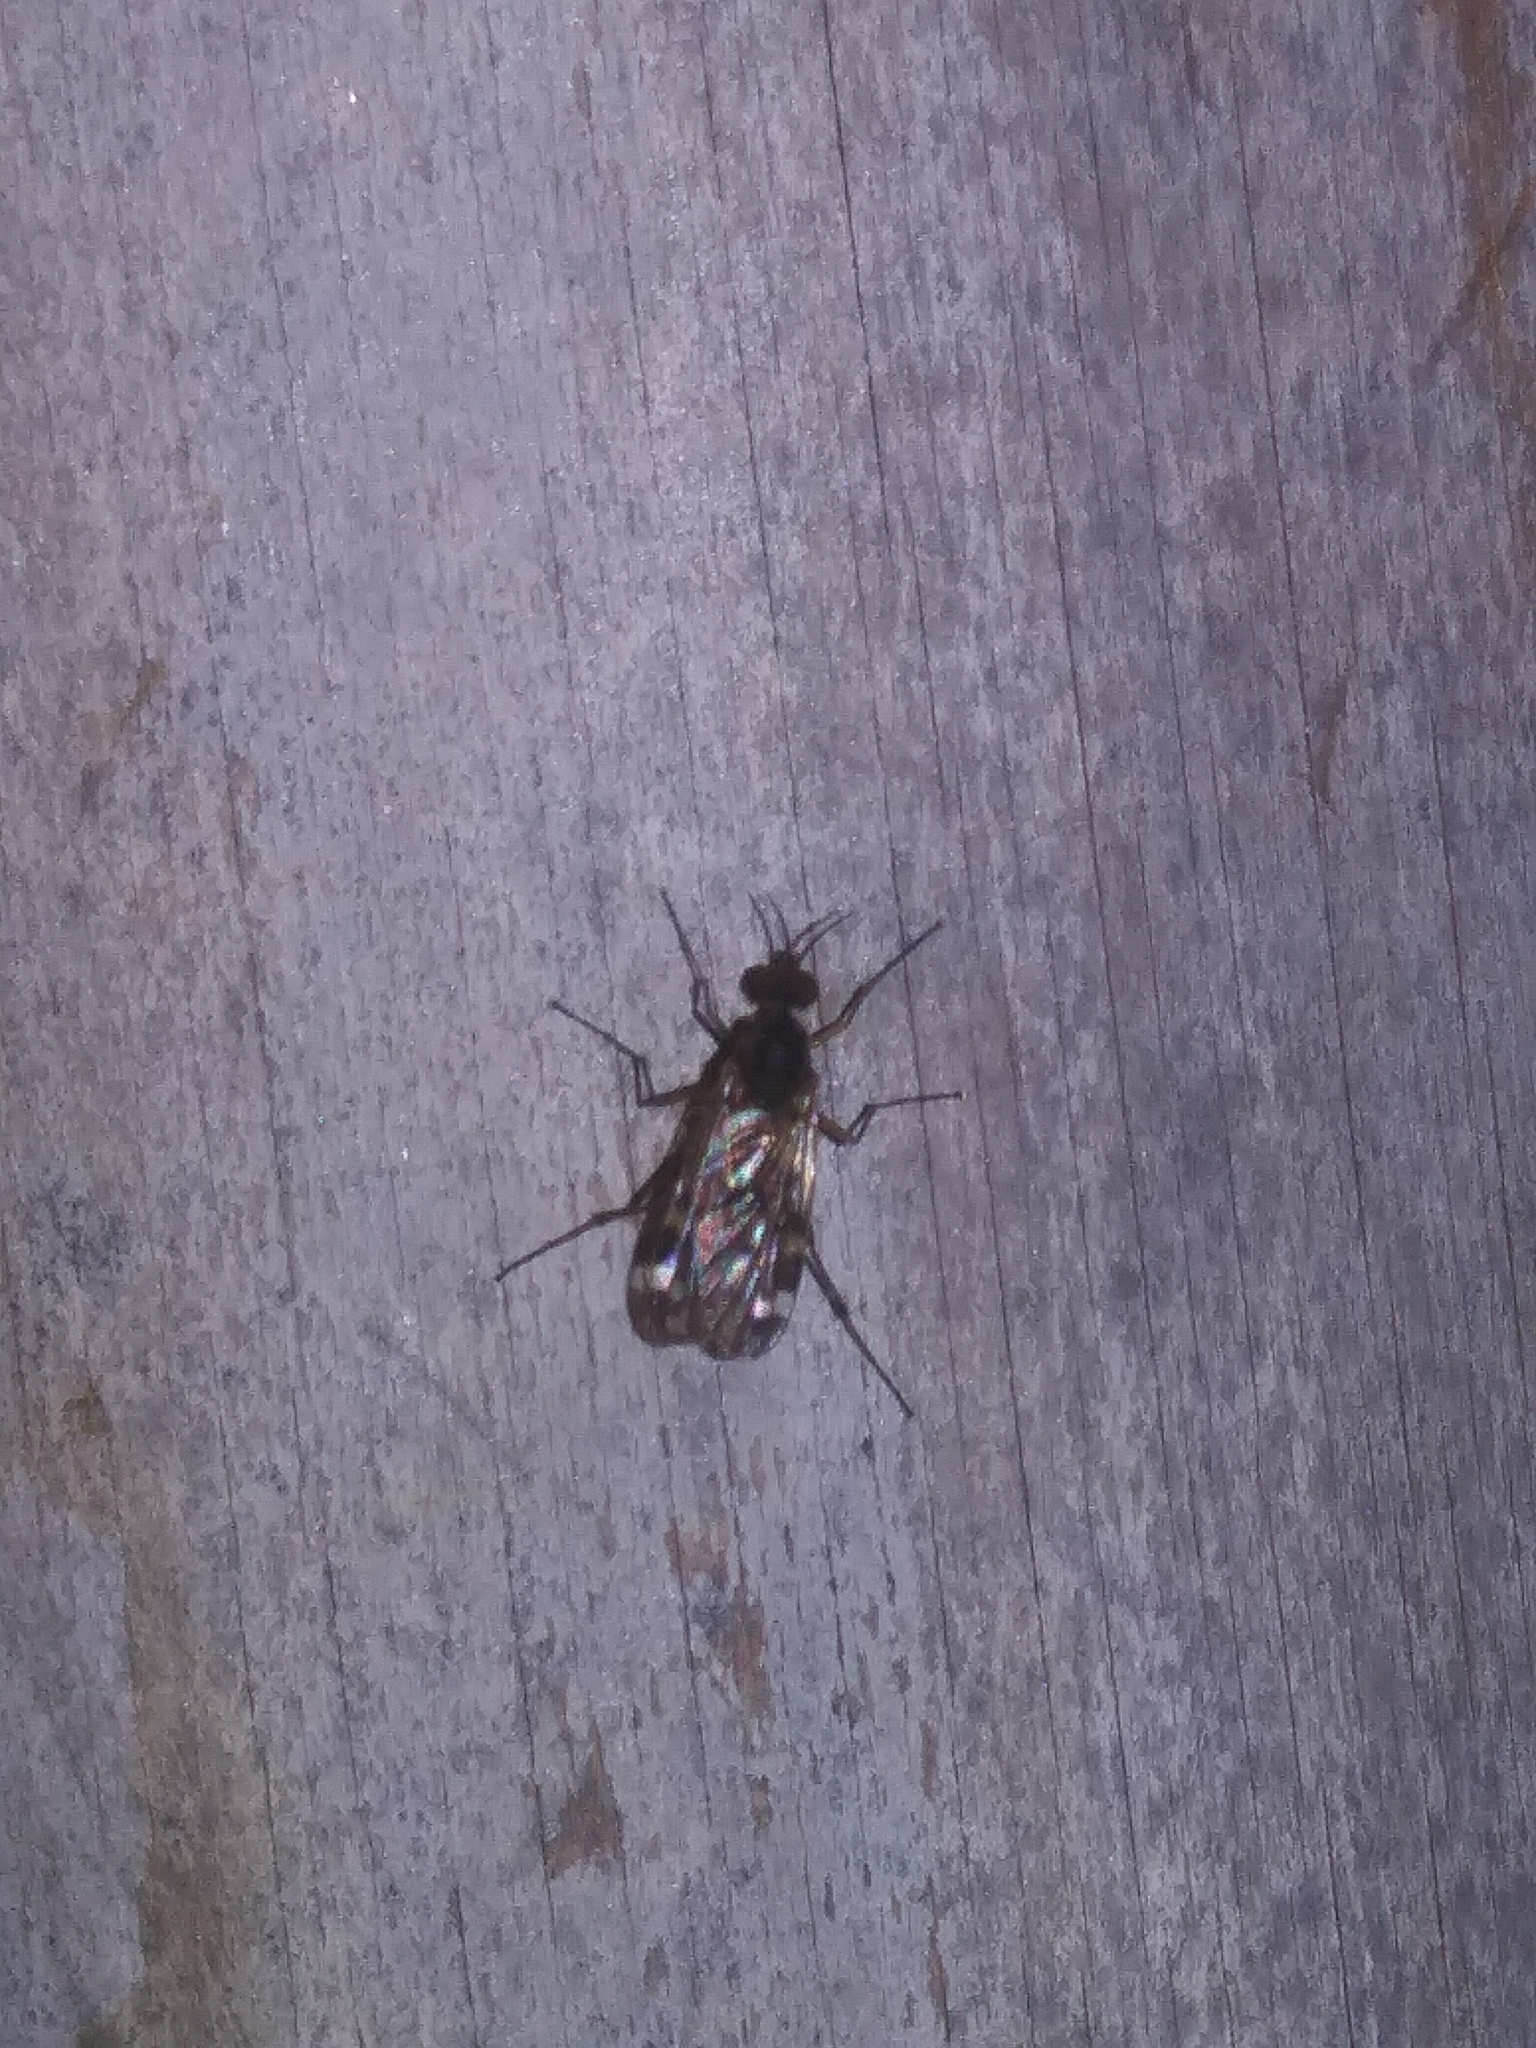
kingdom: Animalia
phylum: Arthropoda
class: Insecta
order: Diptera
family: Anisopodidae
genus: Sylvicola
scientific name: Sylvicola alternata
